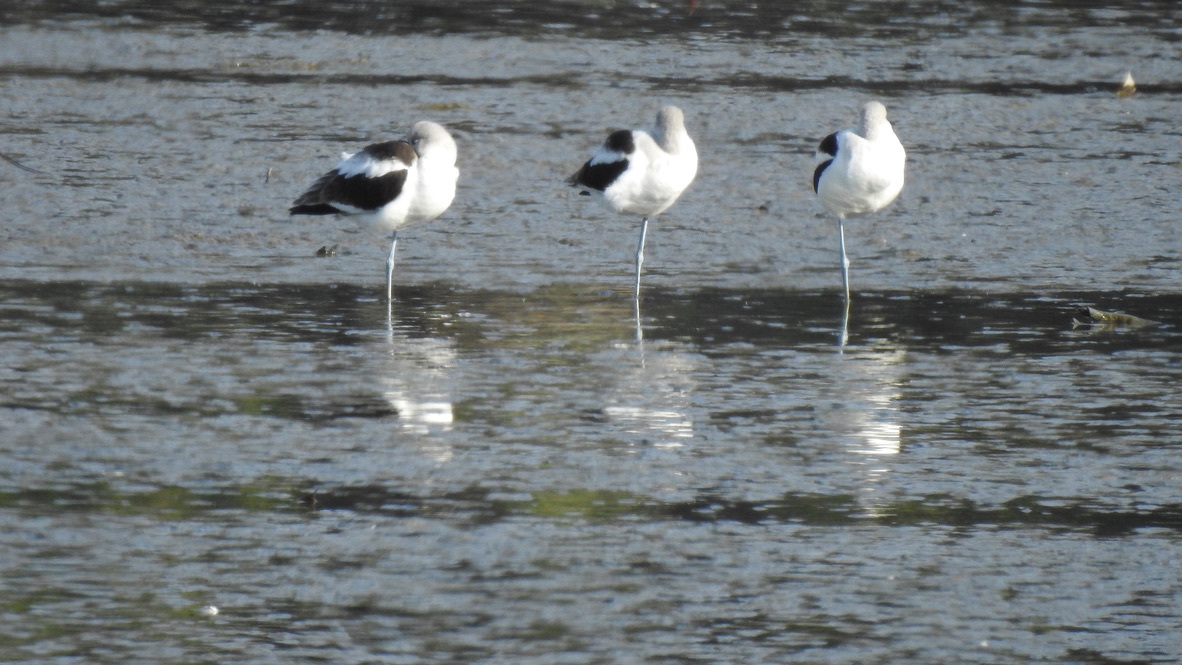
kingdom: Animalia
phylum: Chordata
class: Aves
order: Charadriiformes
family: Recurvirostridae
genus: Recurvirostra
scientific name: Recurvirostra americana
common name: American avocet
